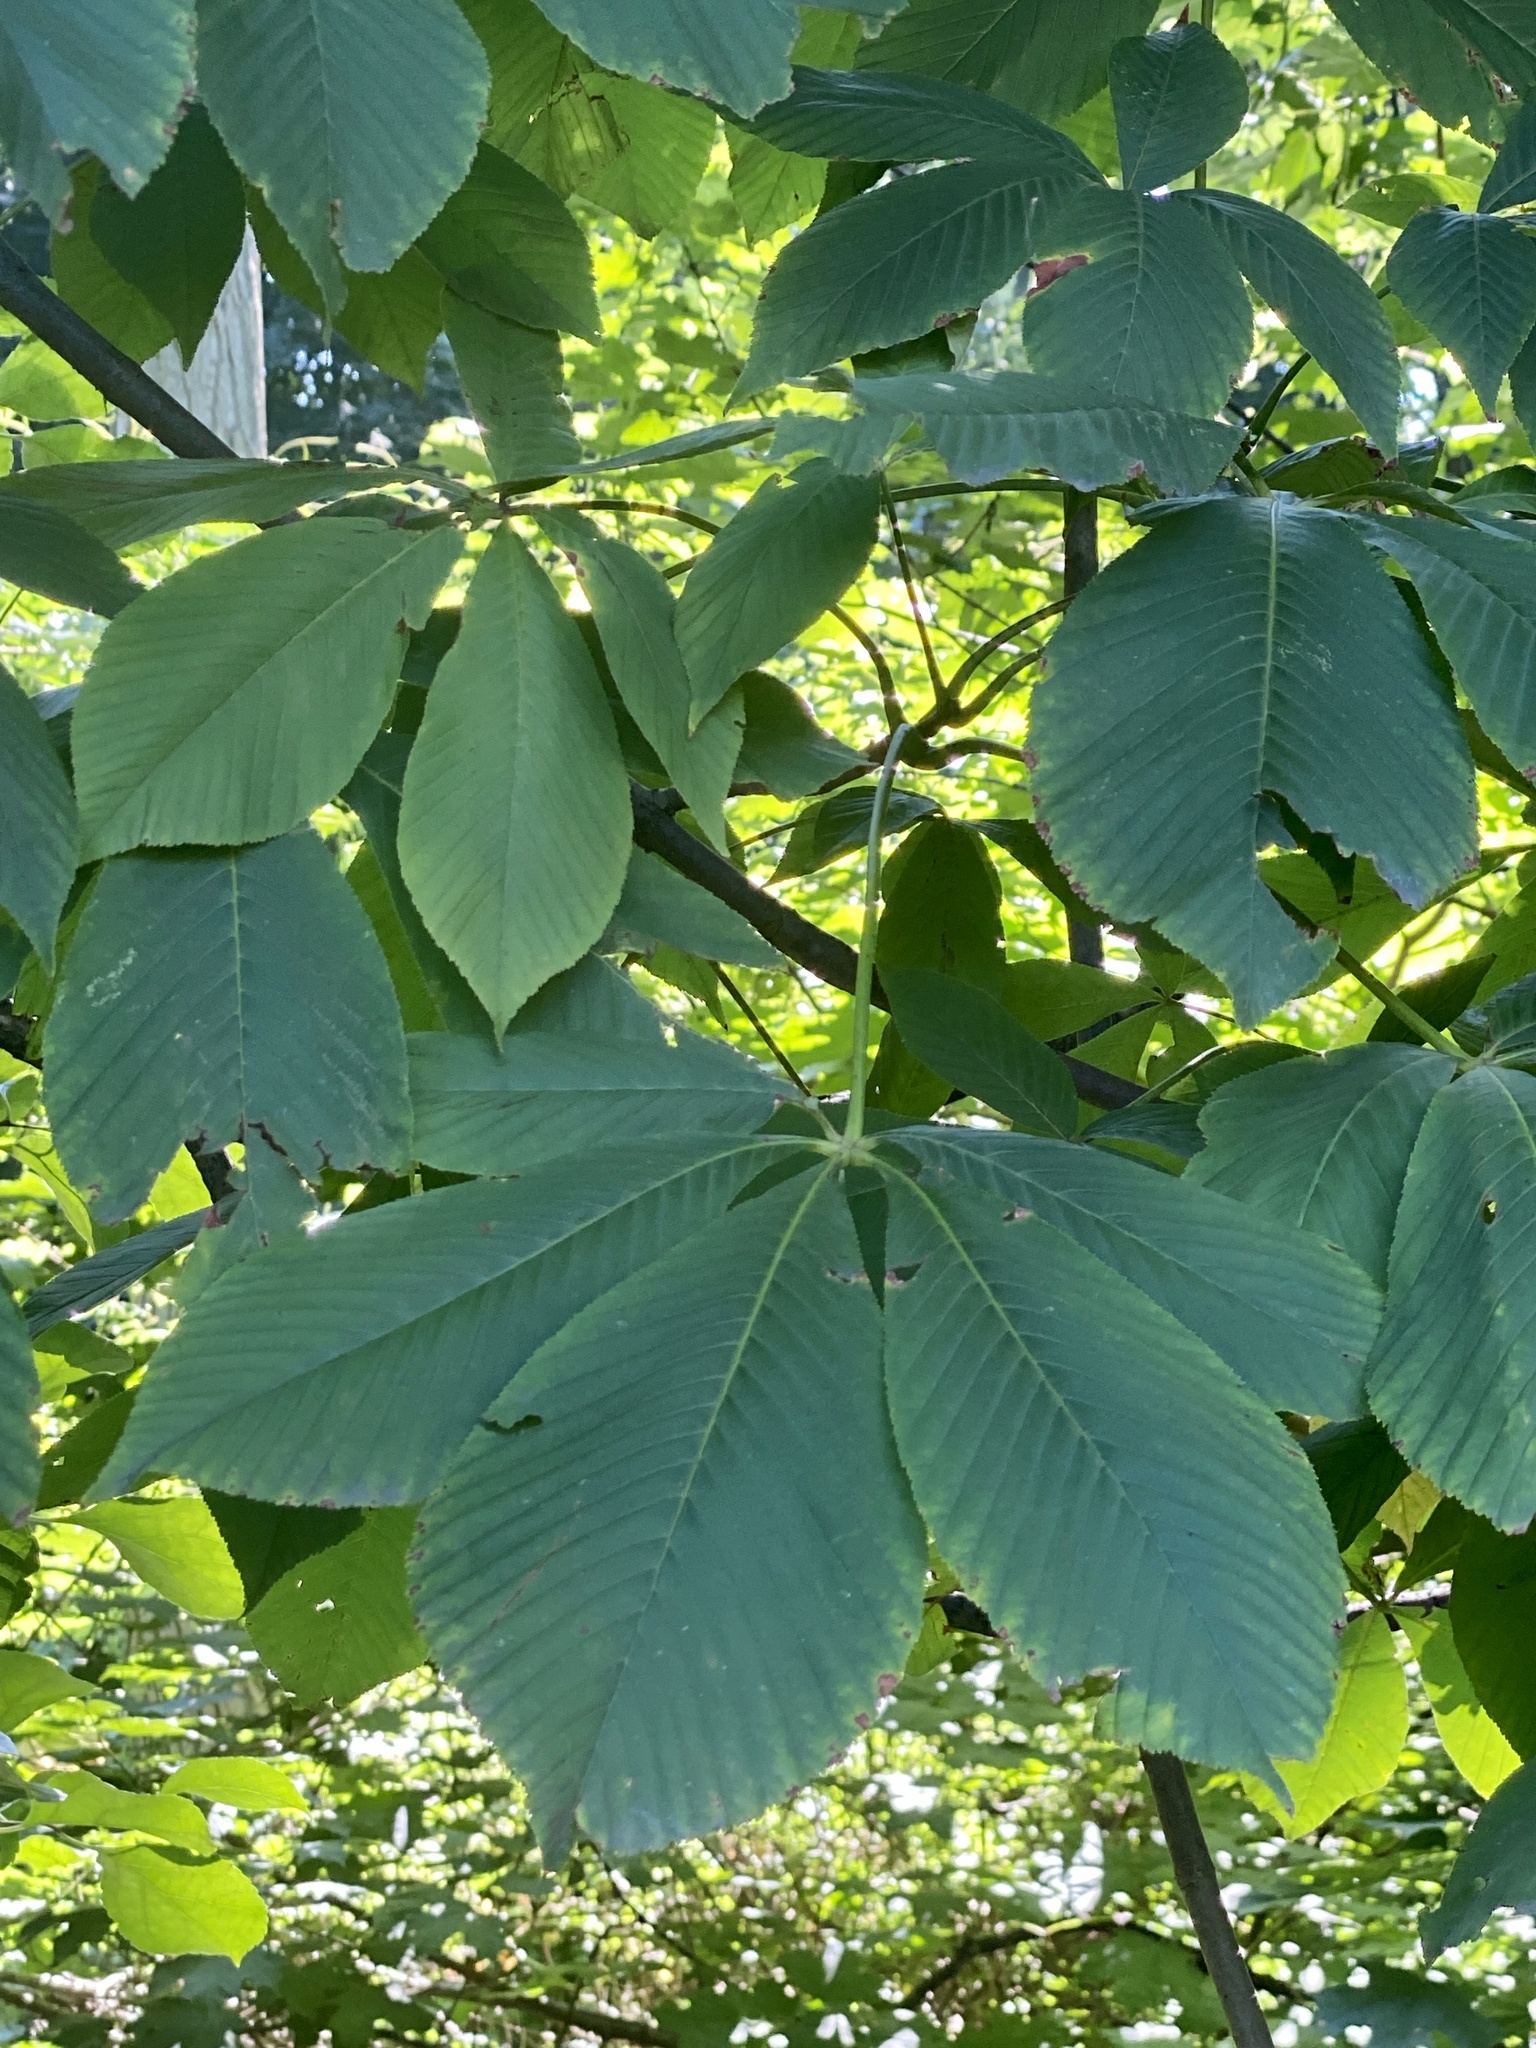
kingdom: Plantae
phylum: Tracheophyta
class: Magnoliopsida
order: Sapindales
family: Sapindaceae
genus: Aesculus
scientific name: Aesculus flava
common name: Yellow buckeye
